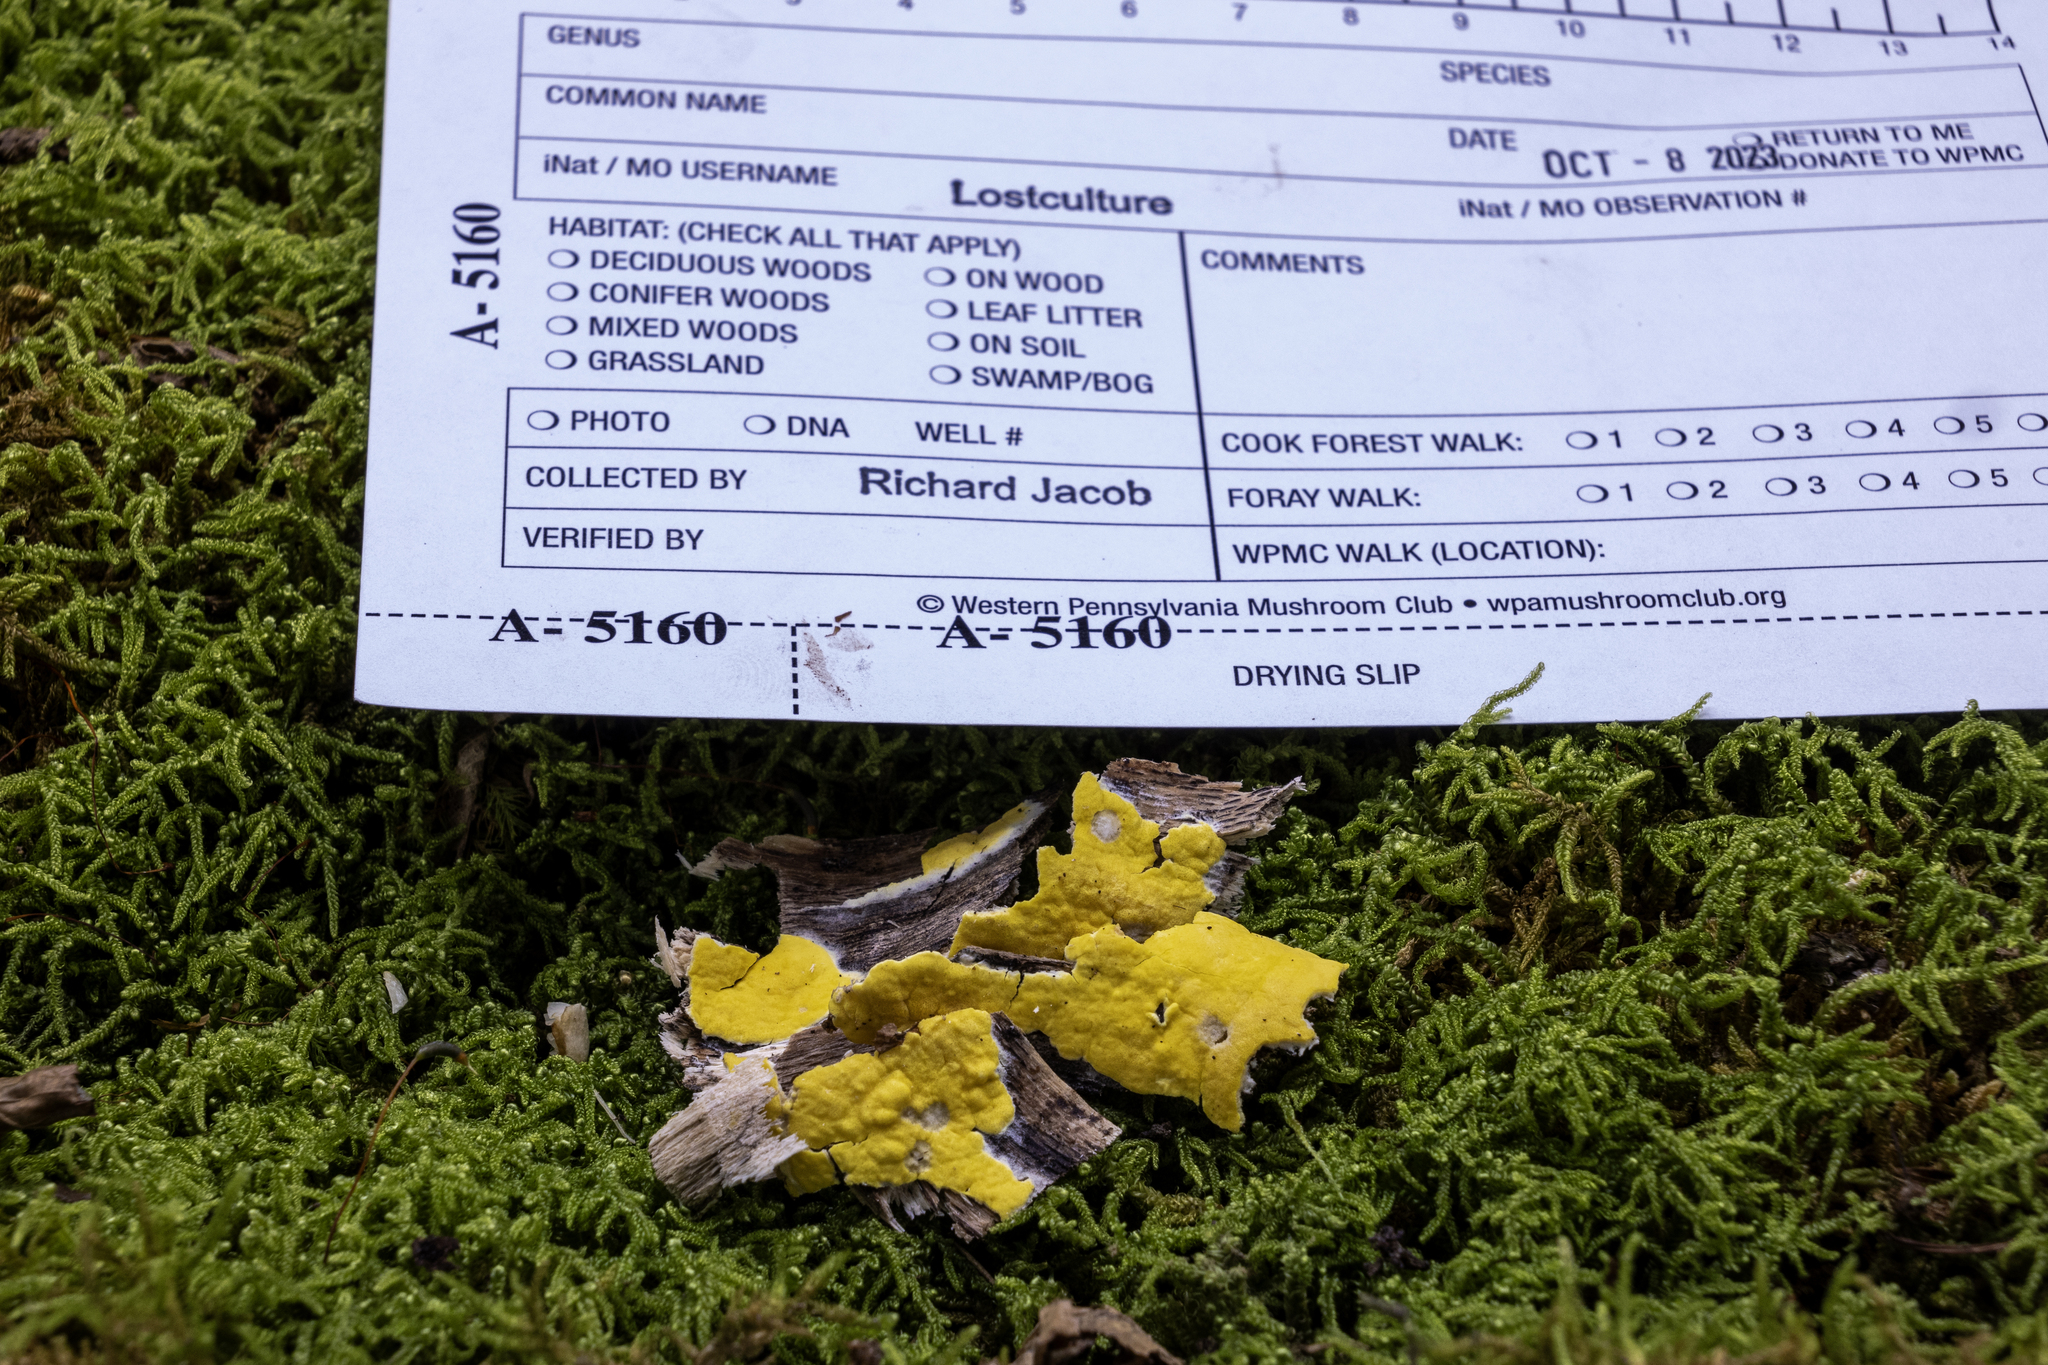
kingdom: Fungi
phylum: Ascomycota
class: Sordariomycetes
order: Hypocreales
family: Hypocreaceae
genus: Trichoderma
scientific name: Trichoderma sulphureum
